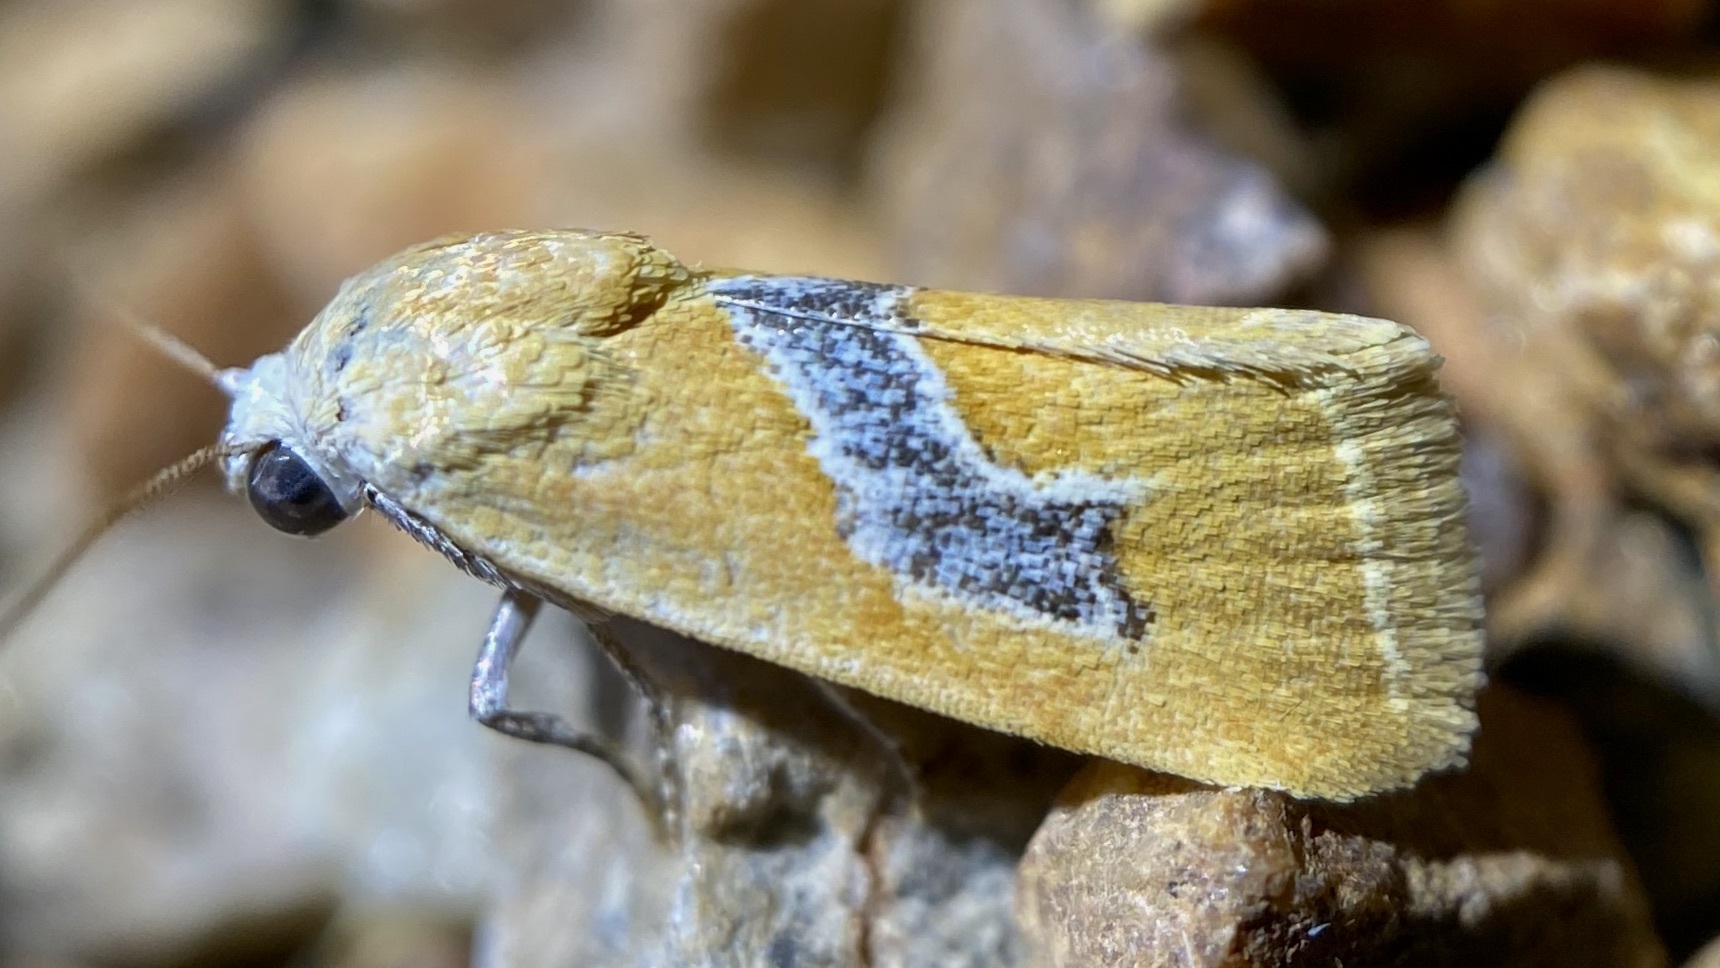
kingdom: Animalia
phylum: Arthropoda
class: Insecta
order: Lepidoptera
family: Noctuidae
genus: Ponometia
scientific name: Ponometia venustula
